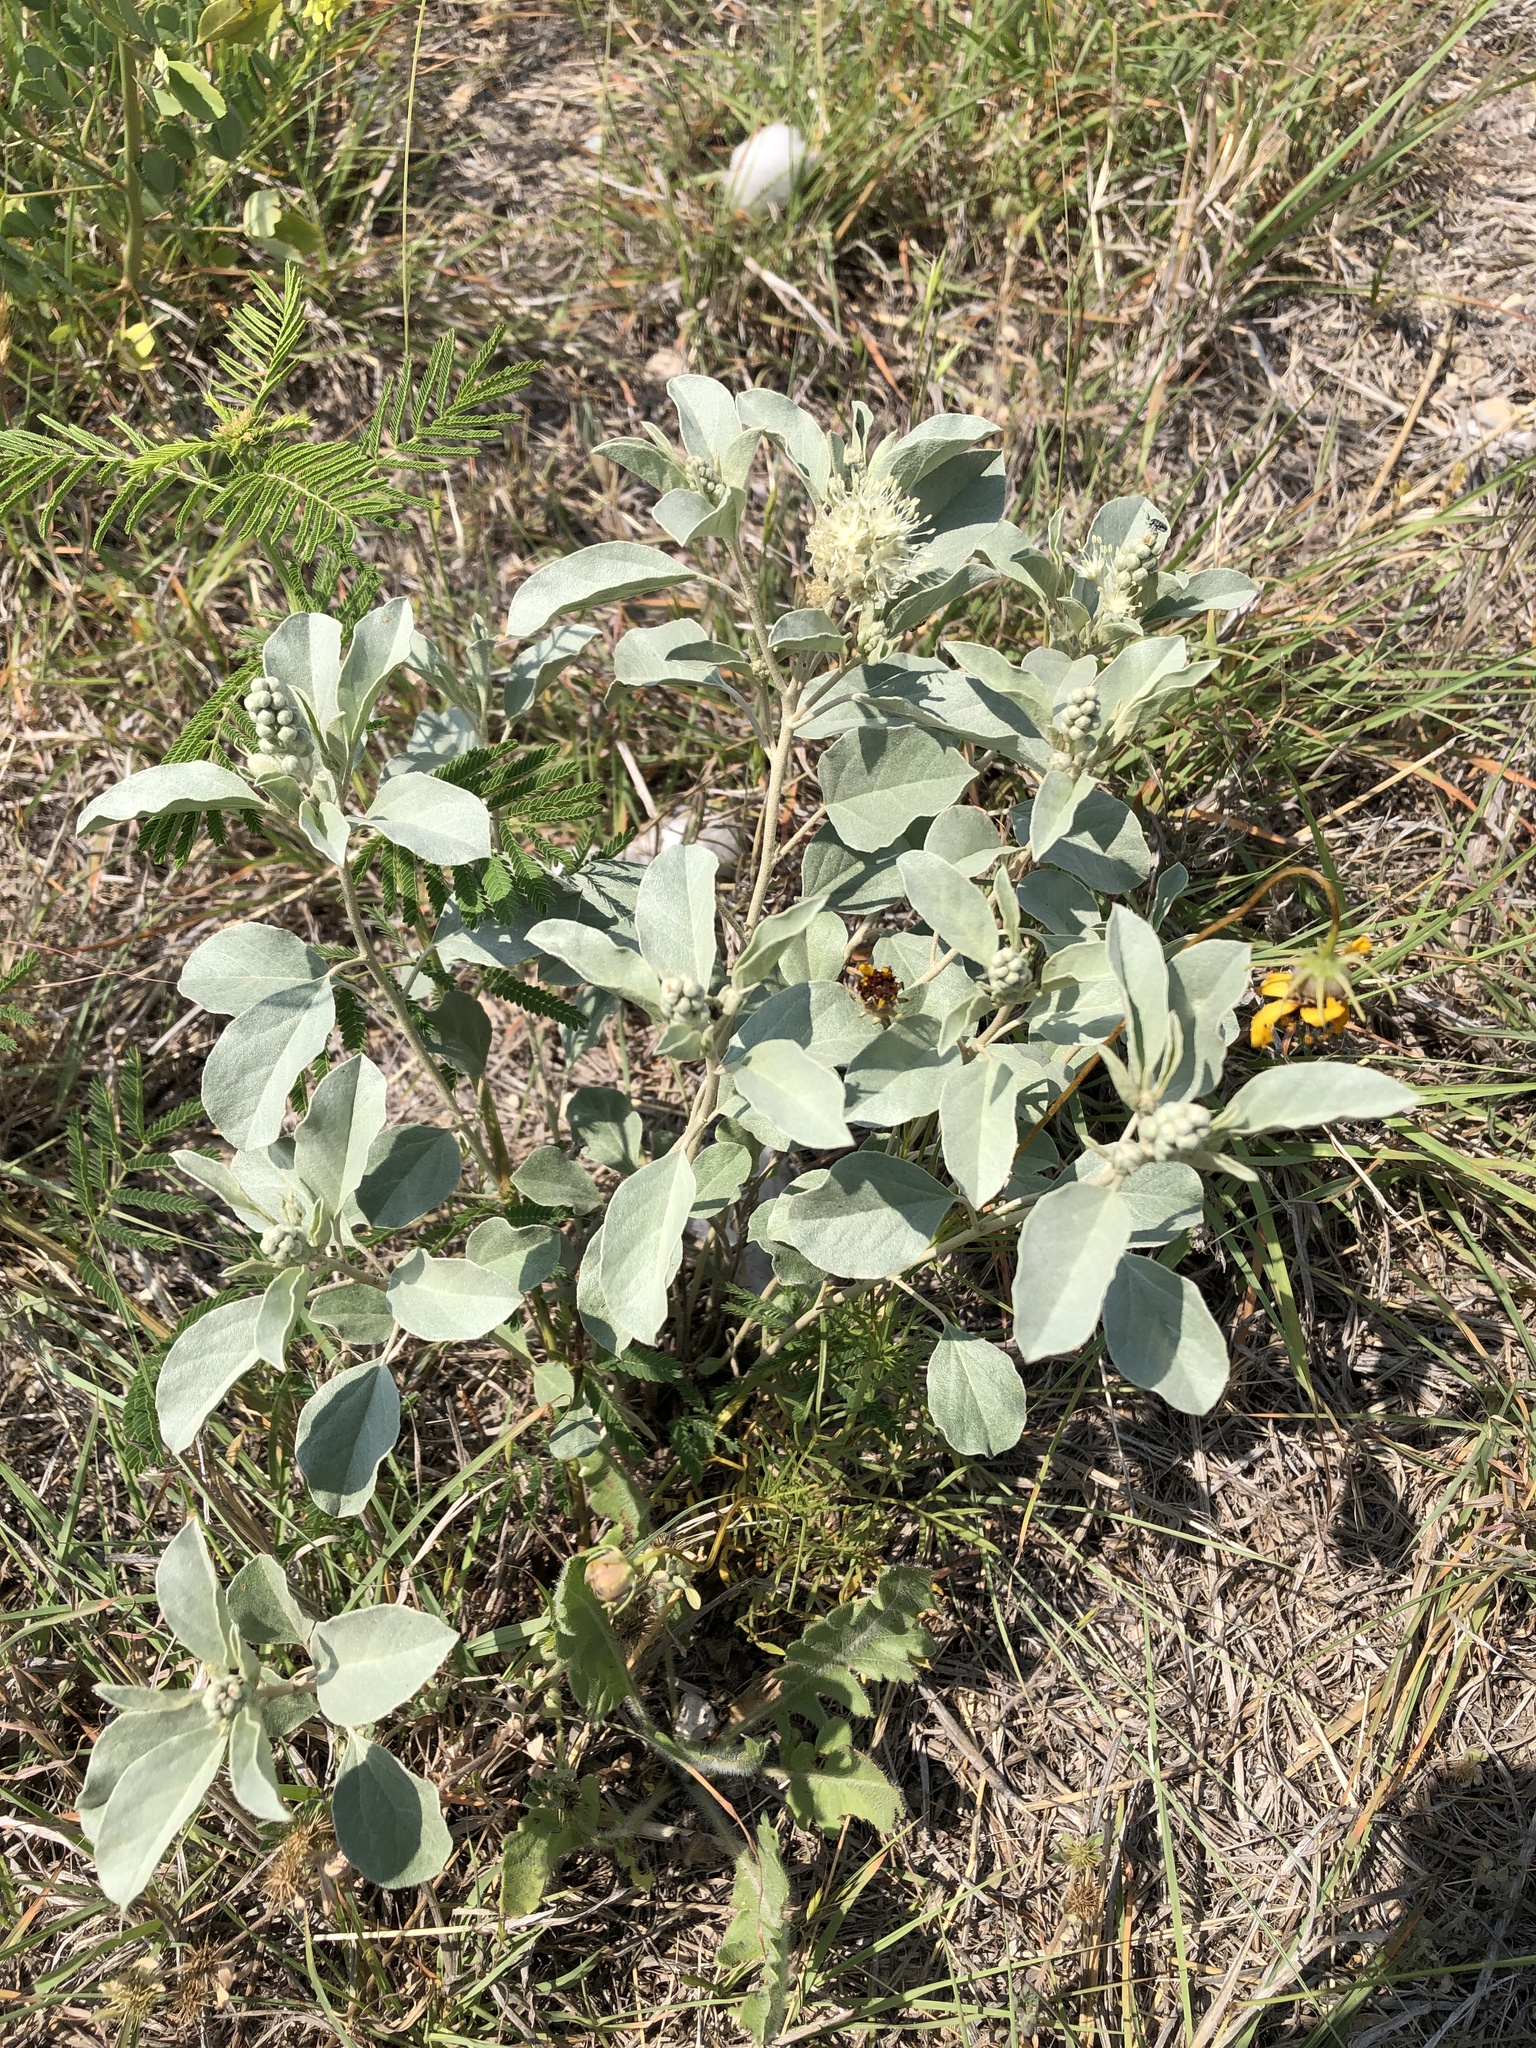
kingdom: Plantae
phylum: Tracheophyta
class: Magnoliopsida
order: Malpighiales
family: Euphorbiaceae
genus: Croton
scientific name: Croton pottsii
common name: Leatherweed
